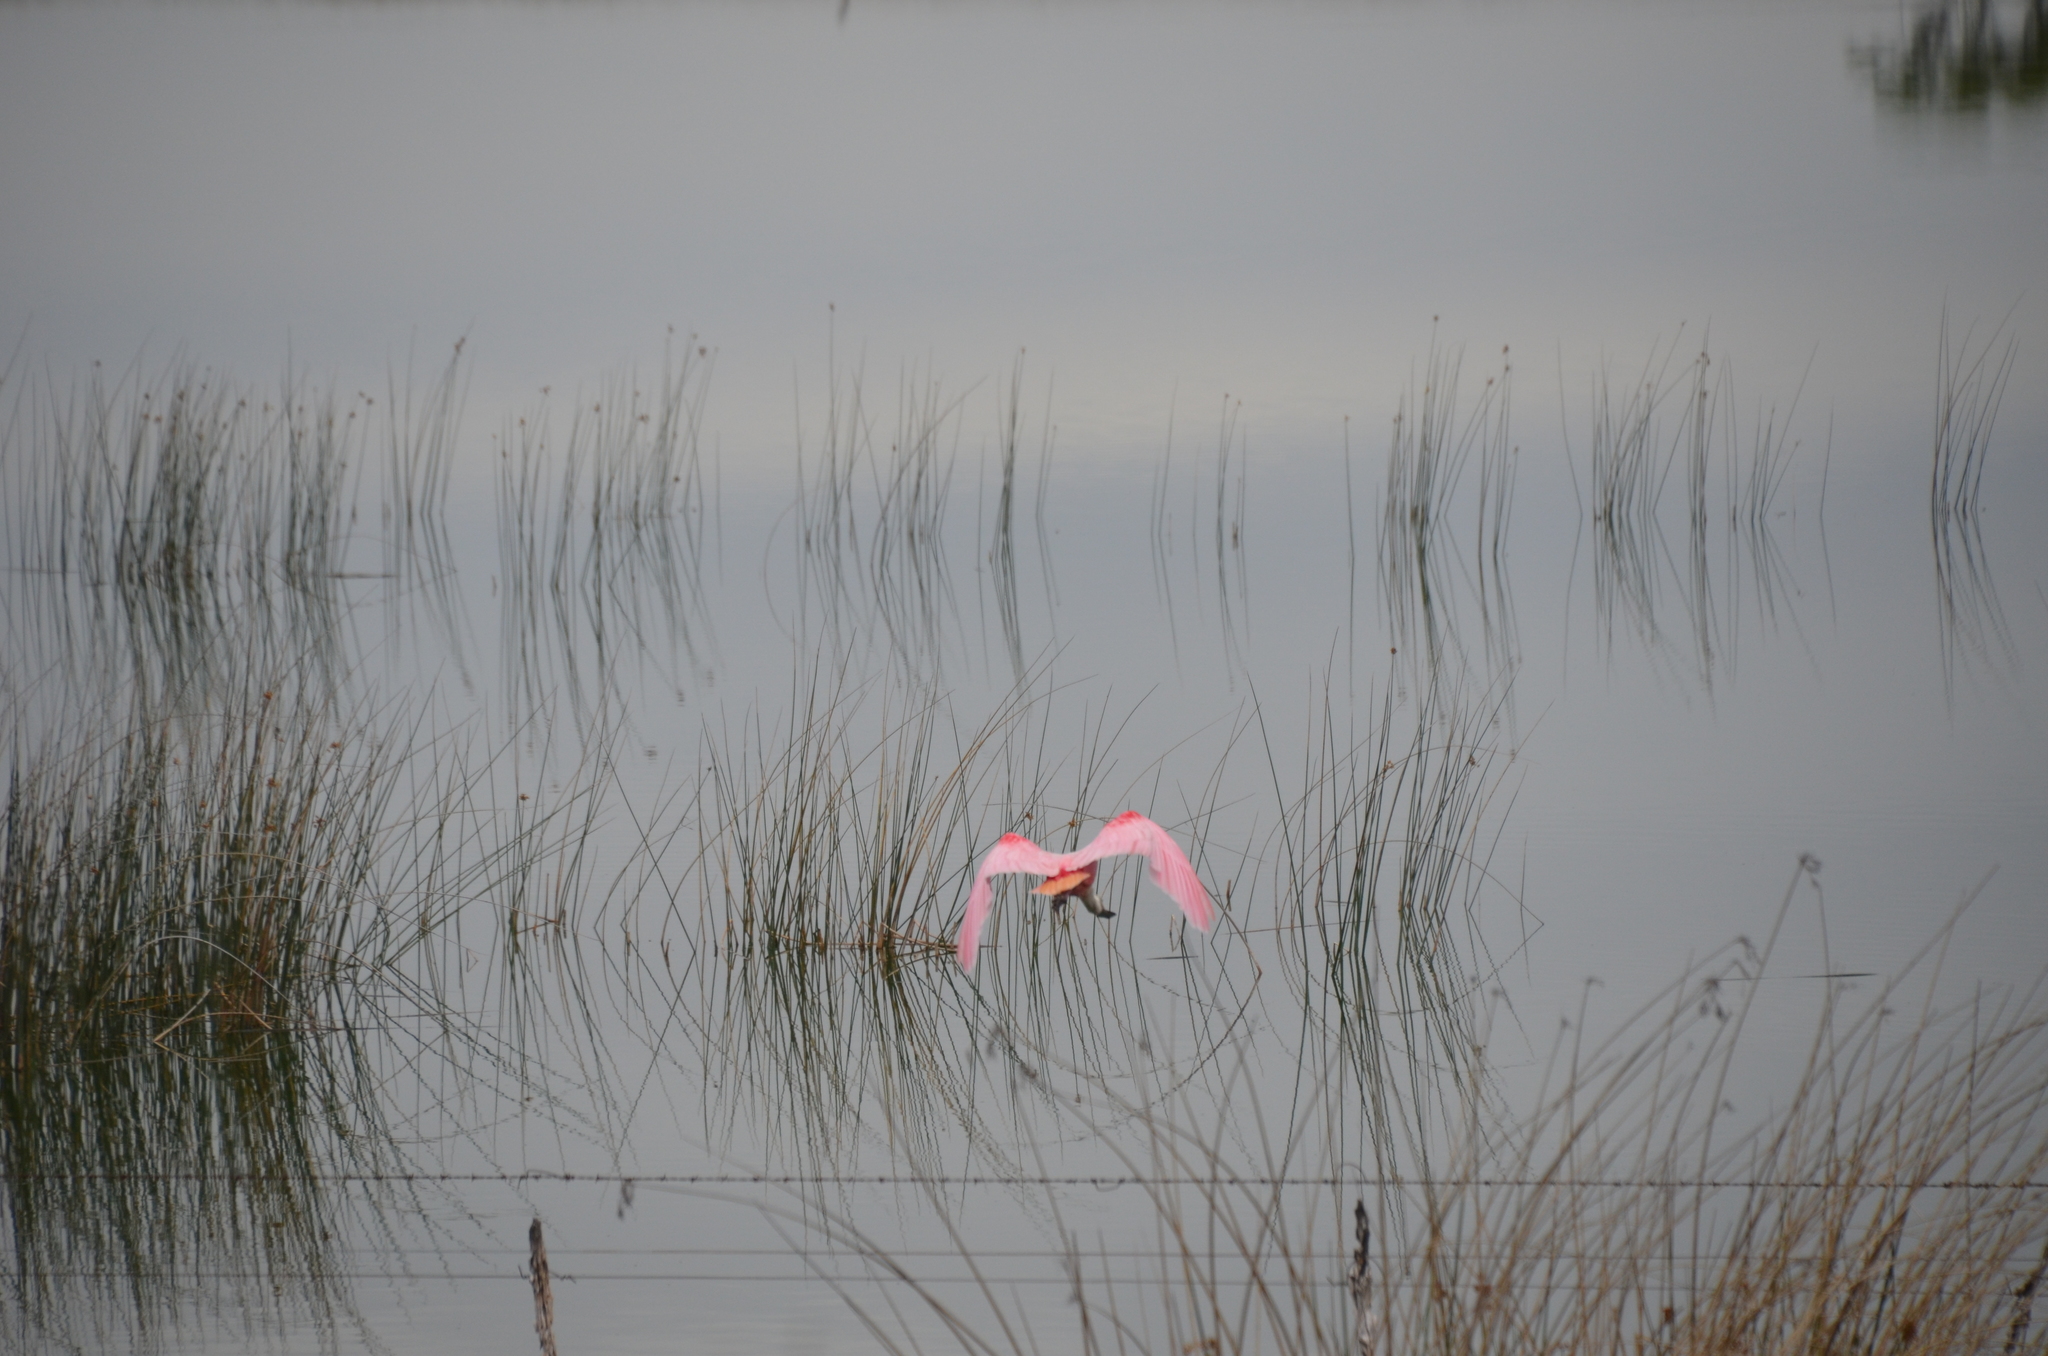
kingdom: Animalia
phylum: Chordata
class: Aves
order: Pelecaniformes
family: Threskiornithidae
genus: Platalea
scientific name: Platalea ajaja
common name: Roseate spoonbill
